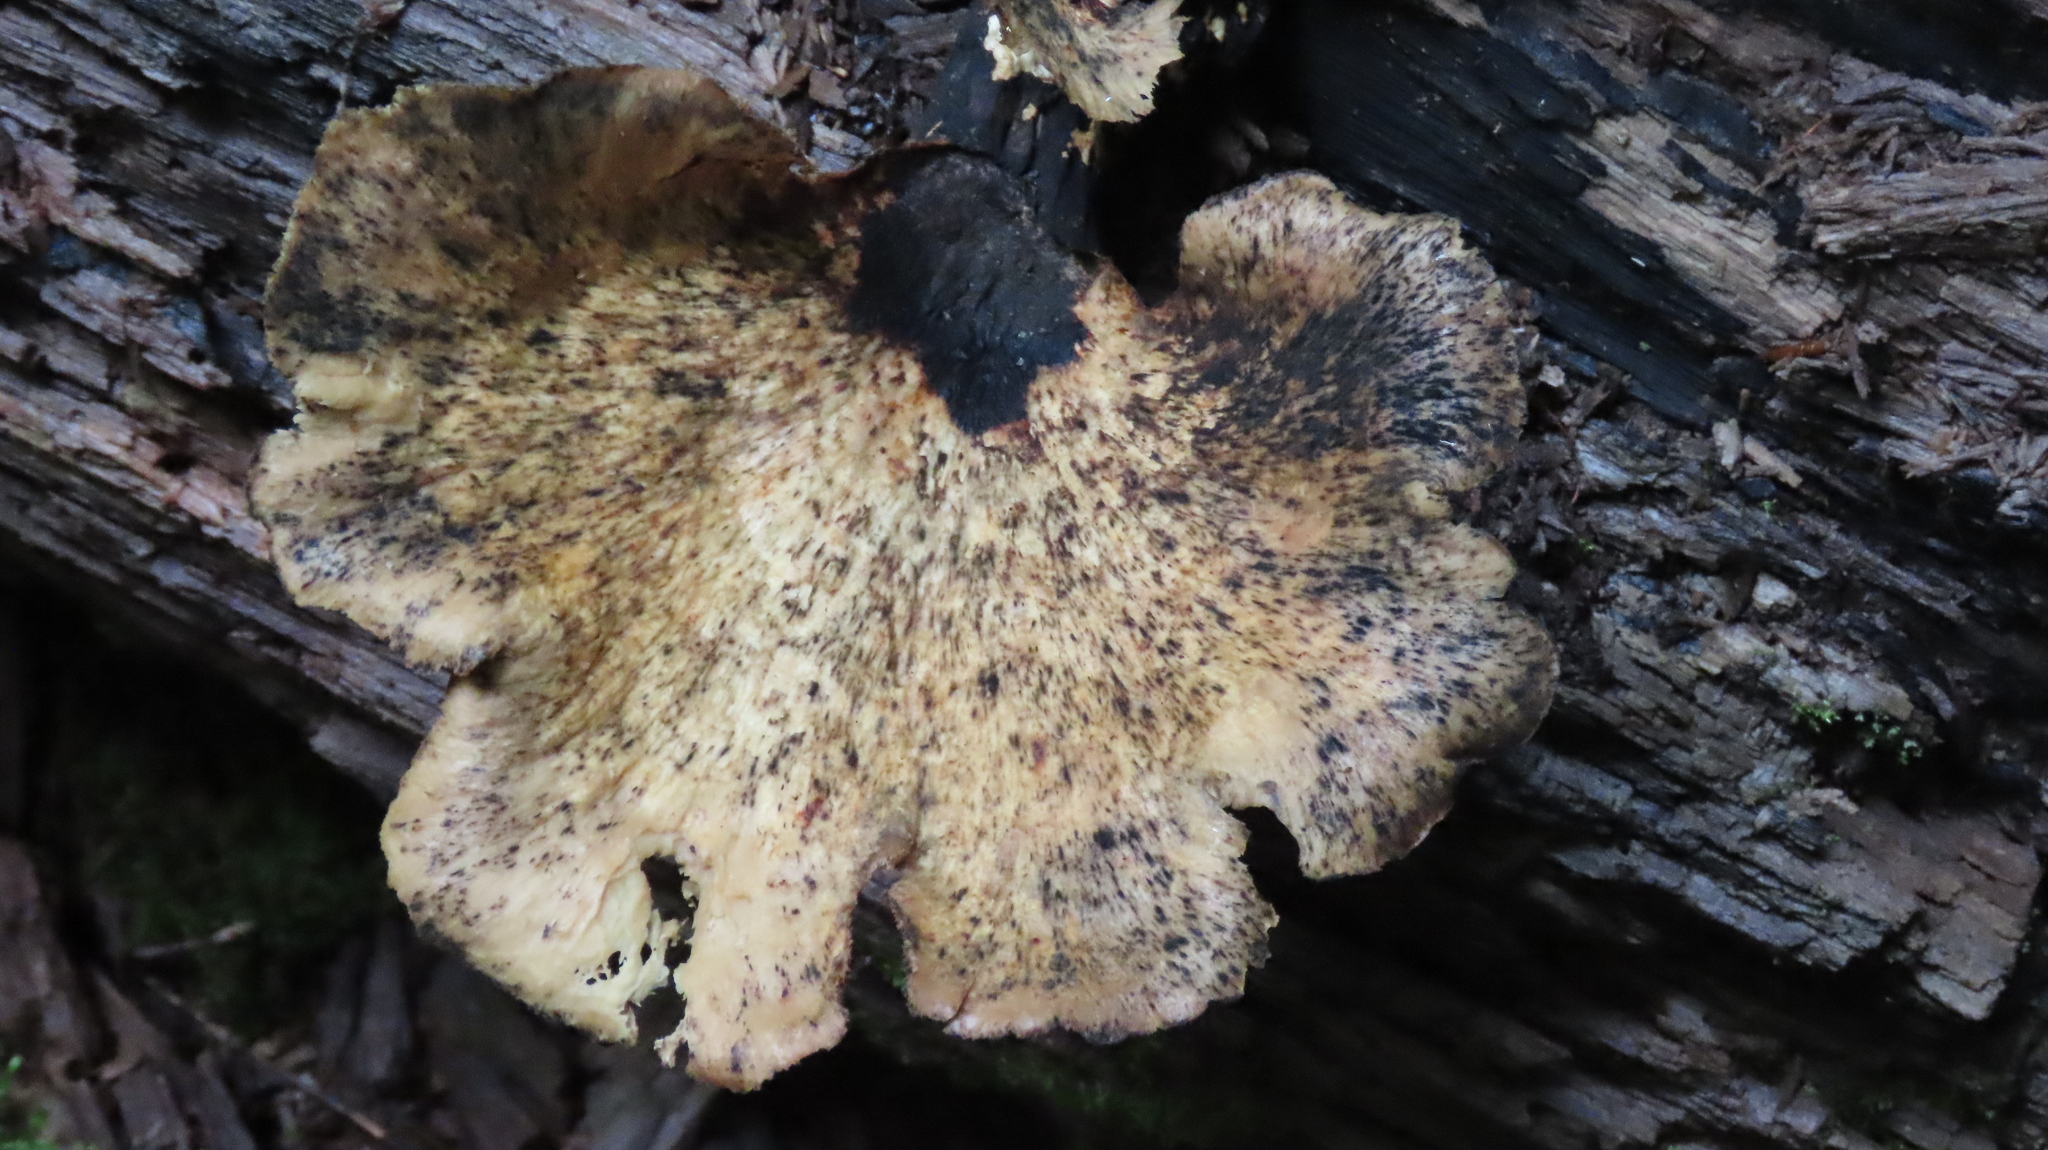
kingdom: Fungi
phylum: Basidiomycota
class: Agaricomycetes
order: Polyporales
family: Polyporaceae
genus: Cerioporus
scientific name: Cerioporus squamosus
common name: Dryad's saddle
